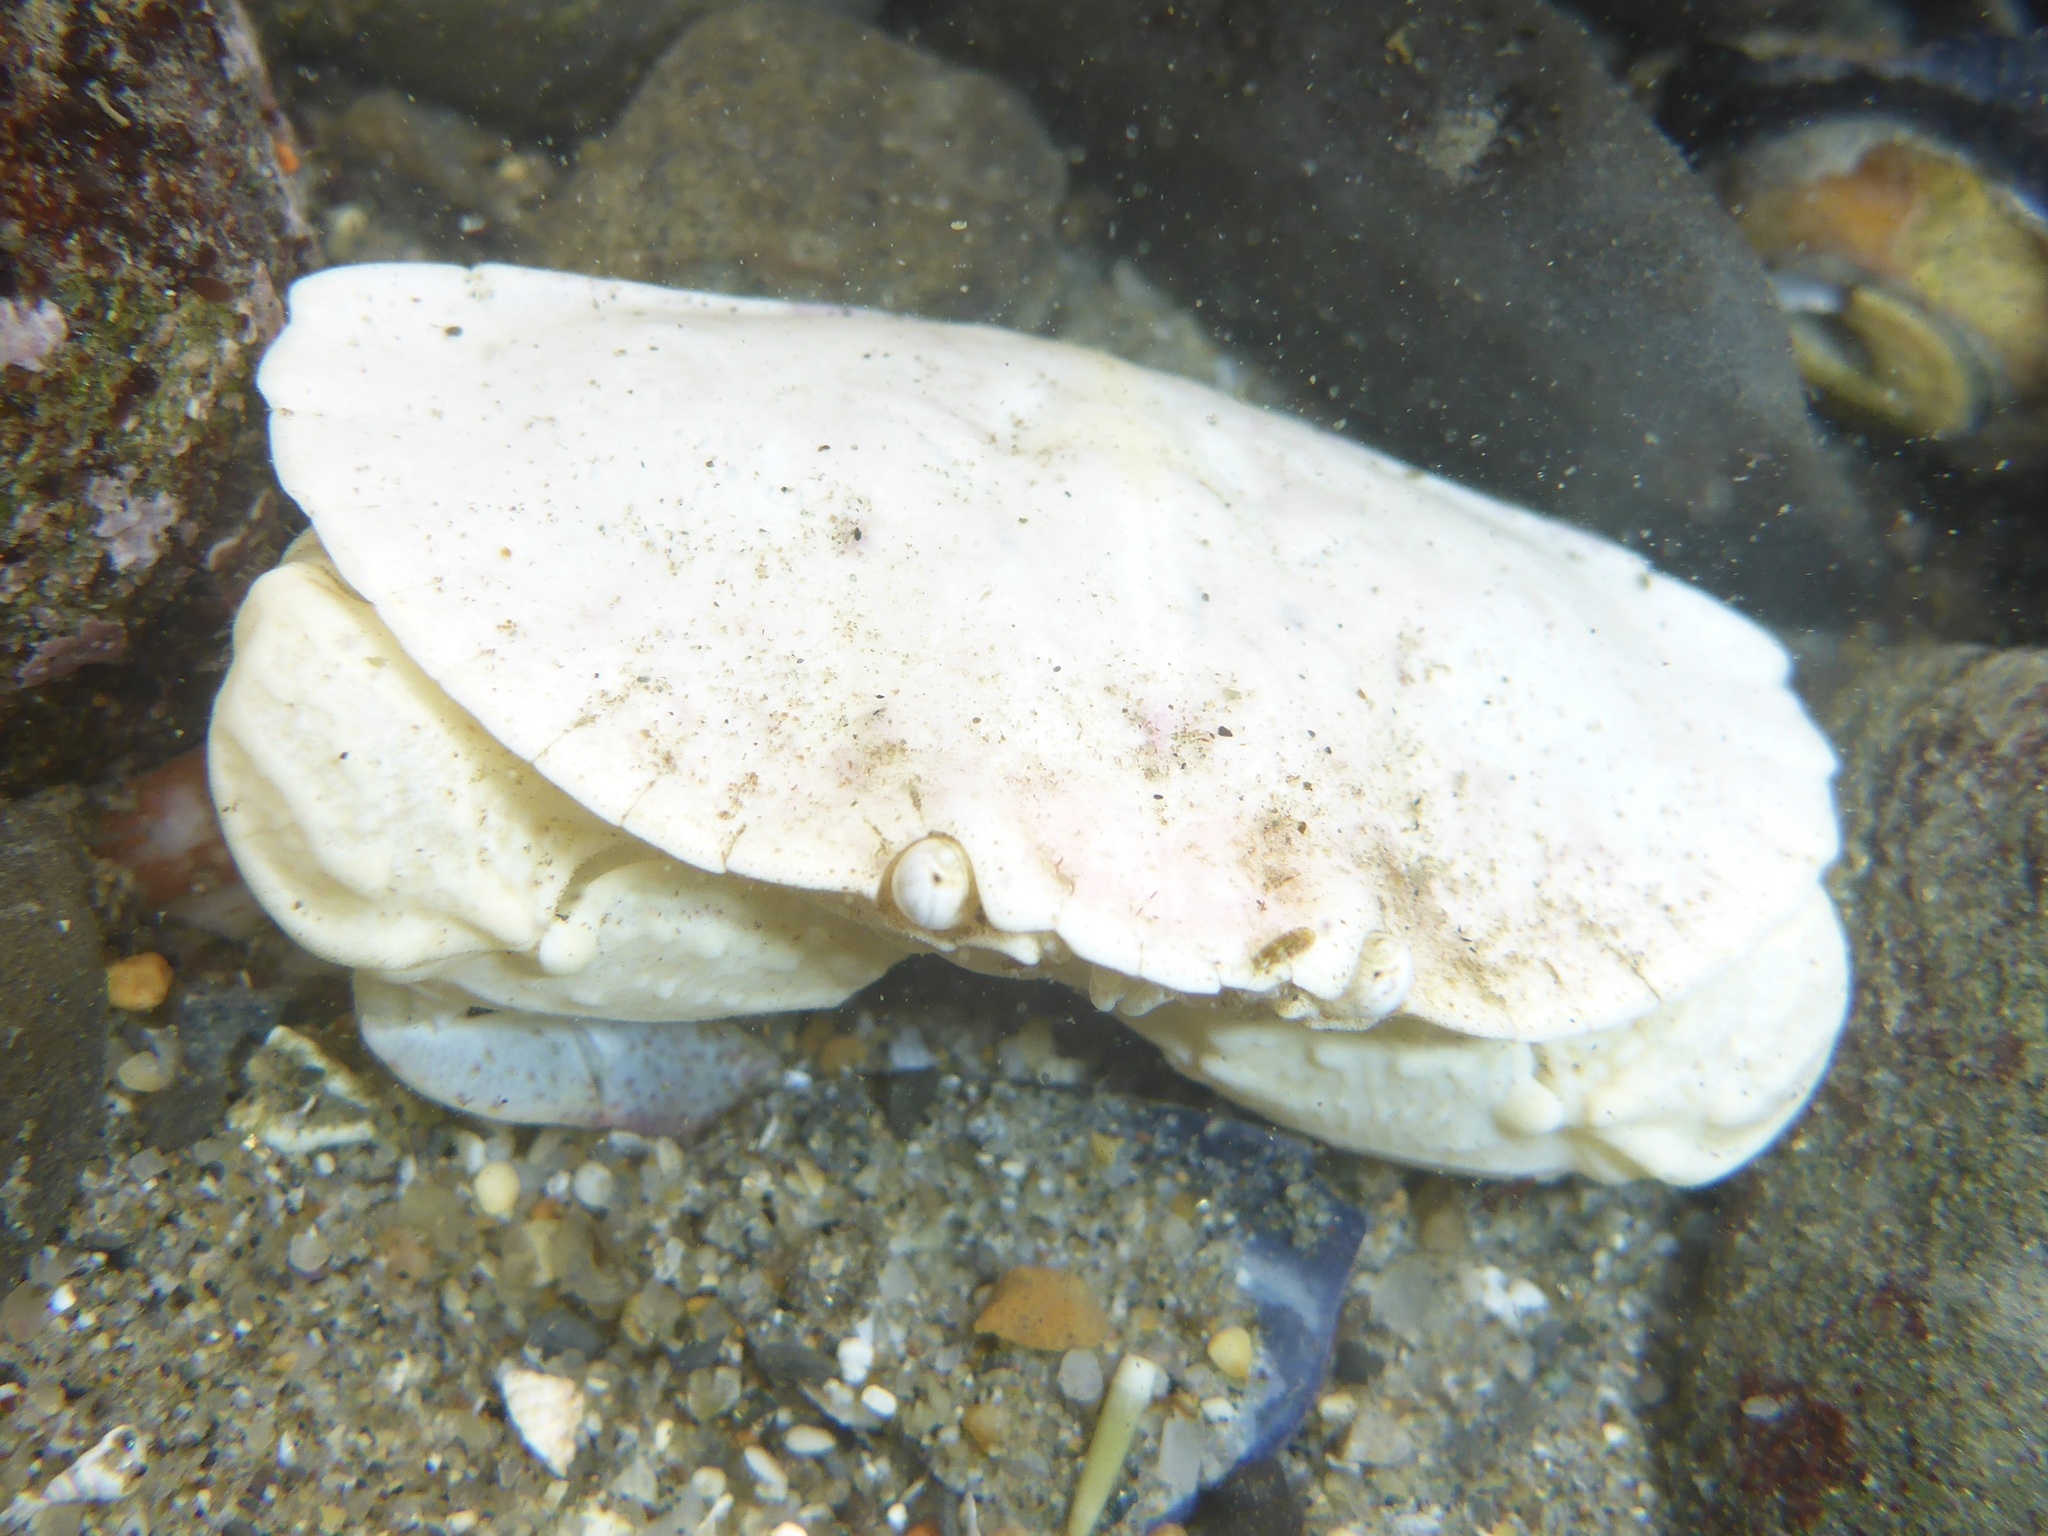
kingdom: Animalia
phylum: Arthropoda
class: Malacostraca
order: Decapoda
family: Cancridae
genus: Cancer
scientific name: Cancer productus
